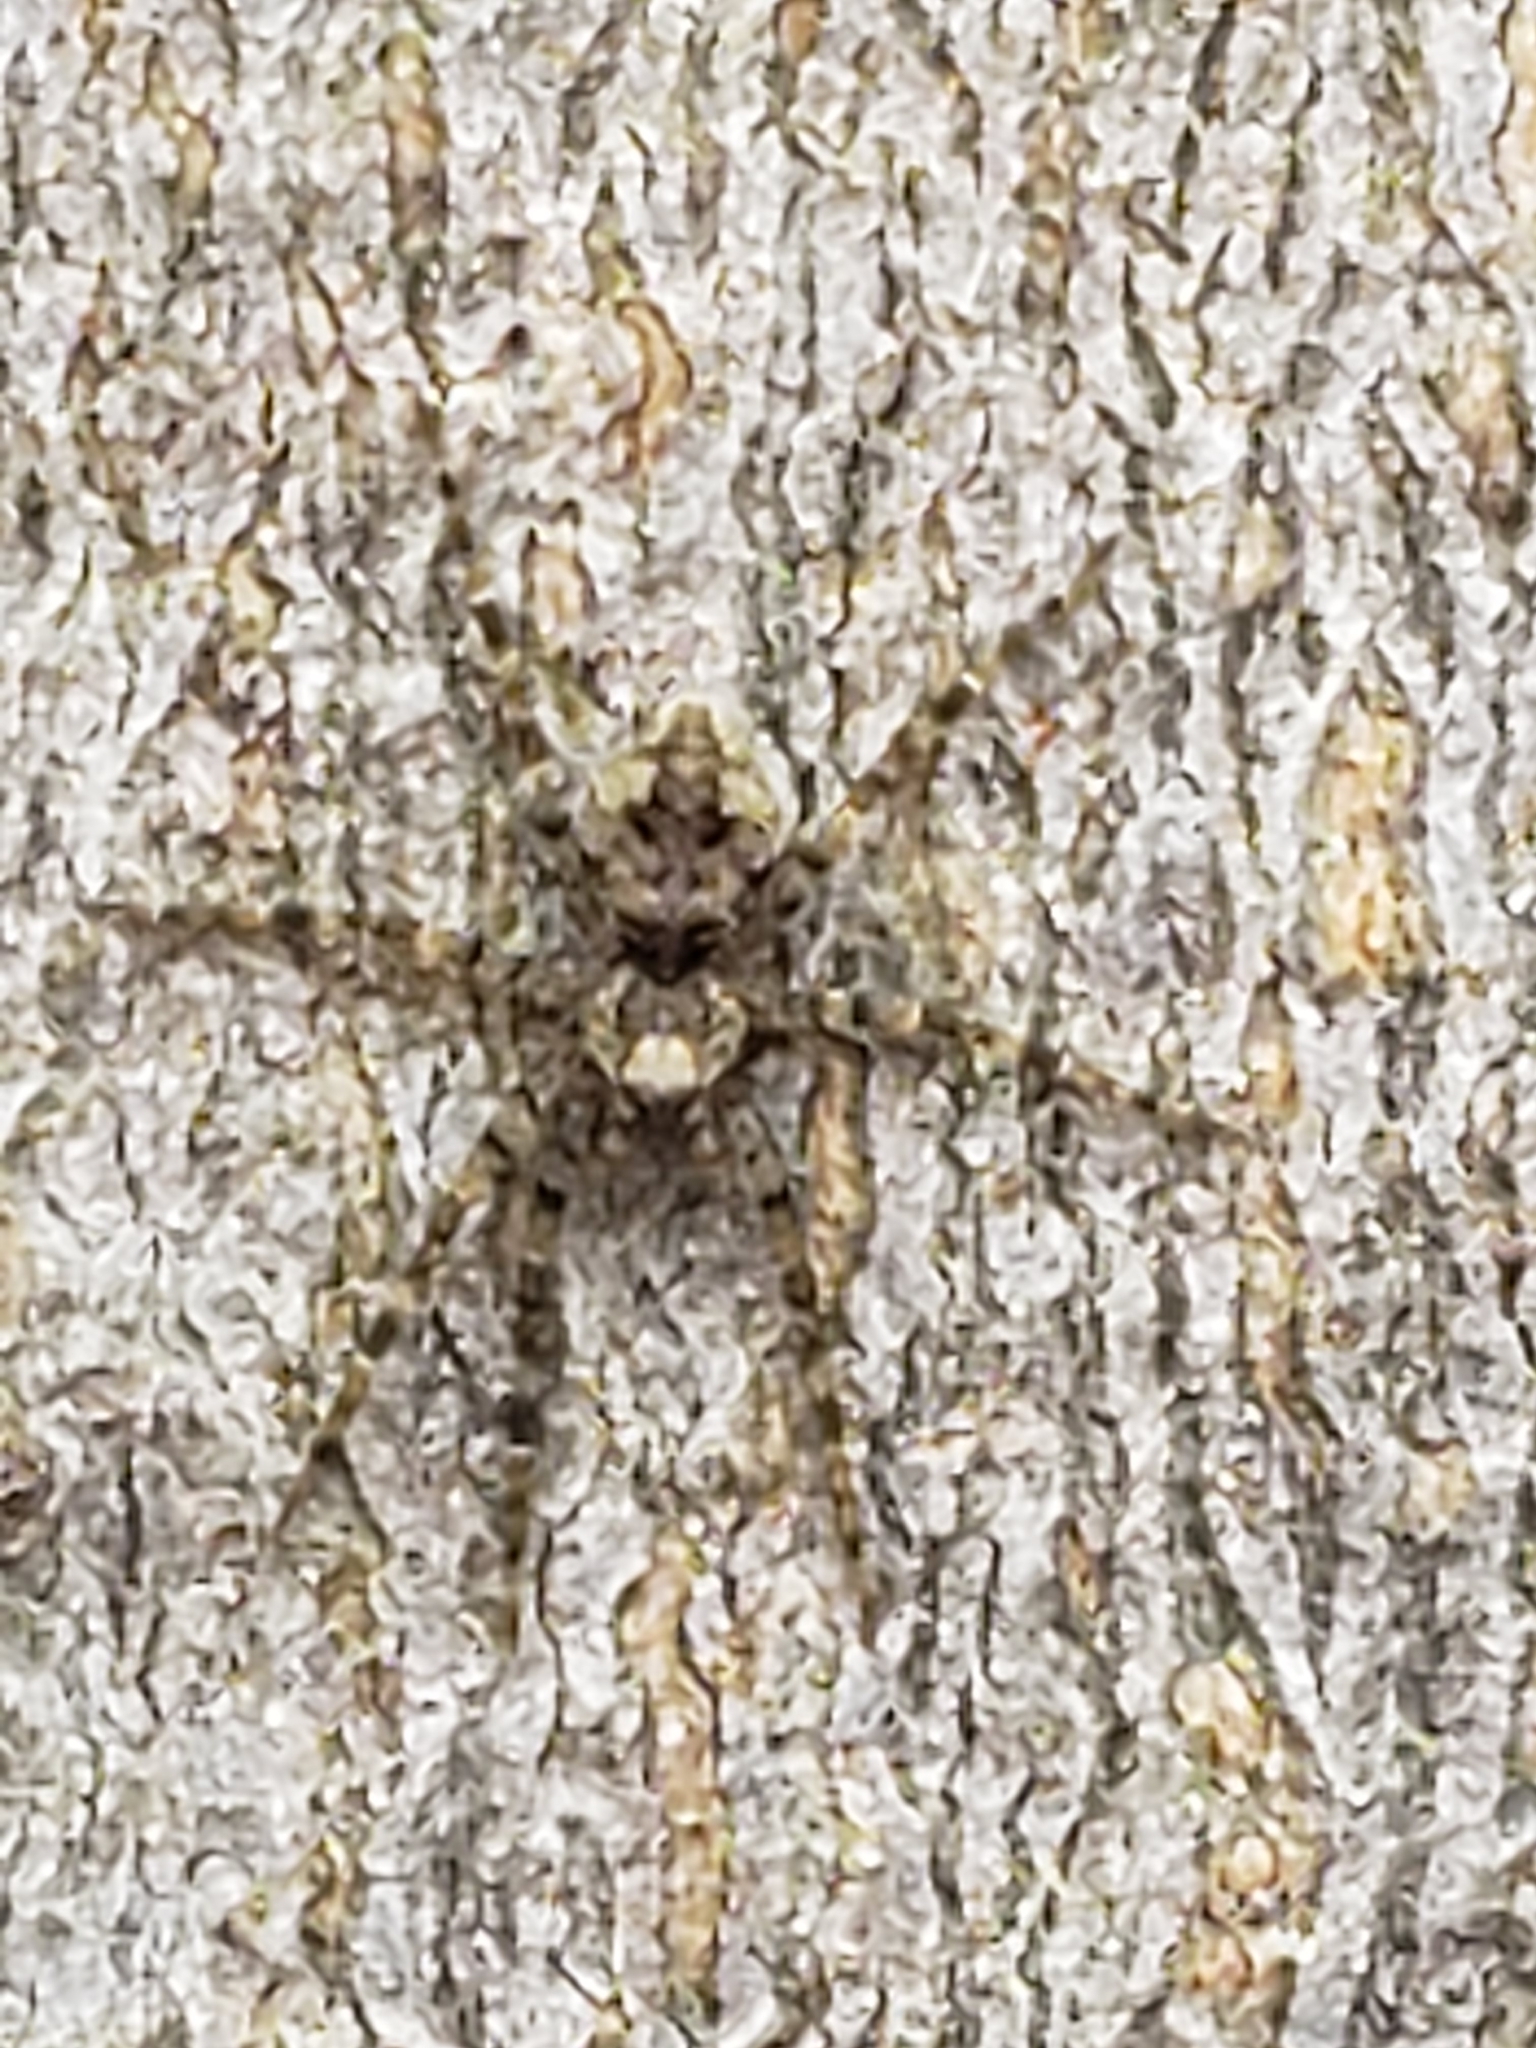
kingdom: Animalia
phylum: Arthropoda
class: Arachnida
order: Araneae
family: Pisauridae
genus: Dolomedes
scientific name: Dolomedes albineus
